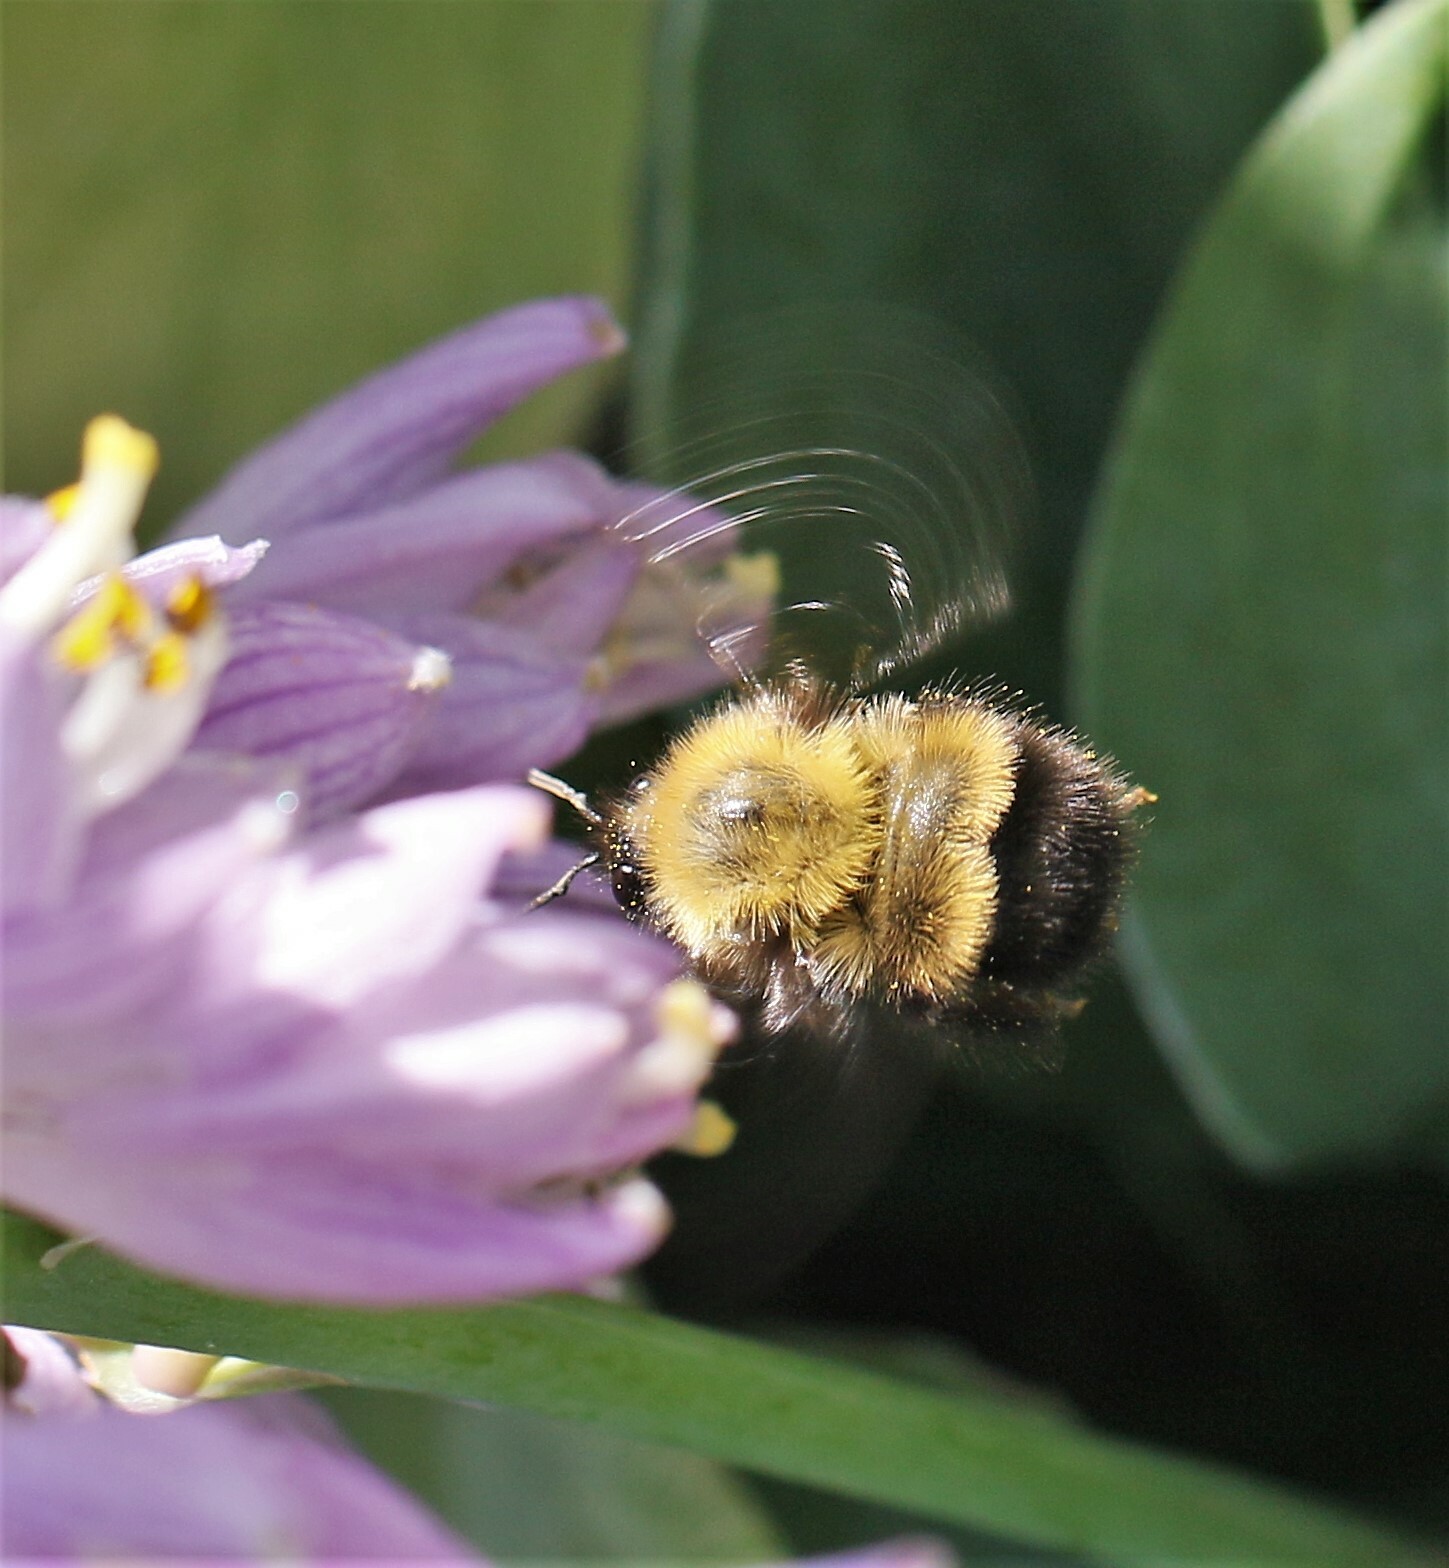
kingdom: Animalia
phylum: Arthropoda
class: Insecta
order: Hymenoptera
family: Apidae
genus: Bombus
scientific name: Bombus perplexus
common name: Confusing bumble bee
